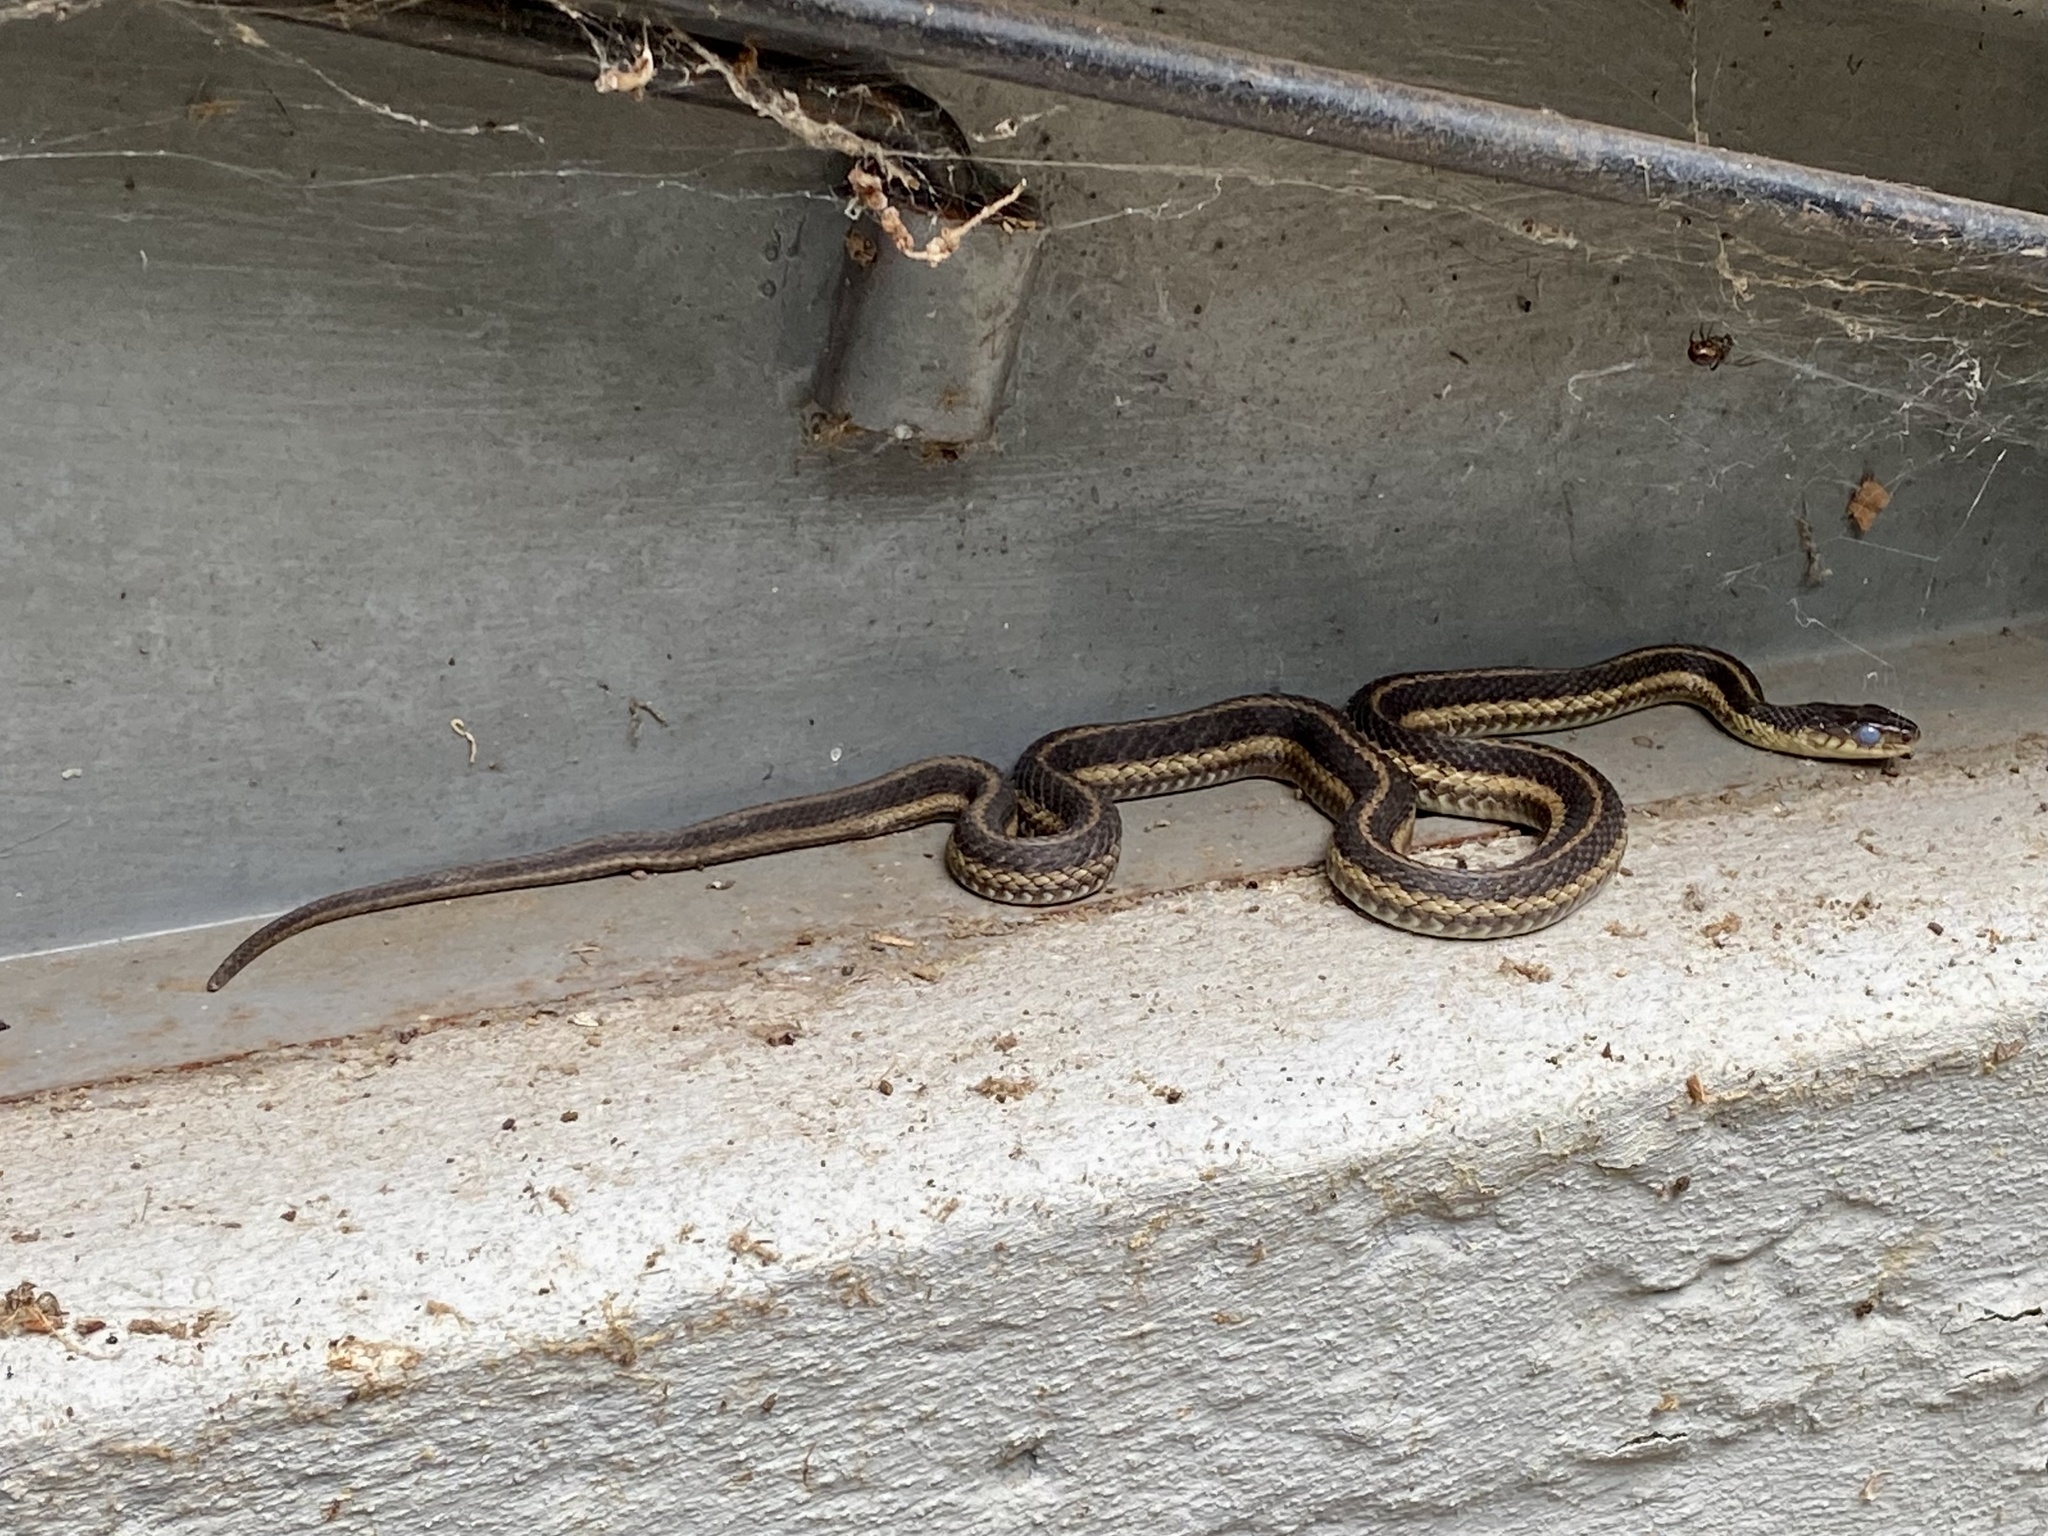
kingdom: Animalia
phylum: Chordata
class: Squamata
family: Colubridae
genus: Thamnophis
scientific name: Thamnophis sirtalis
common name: Common garter snake
